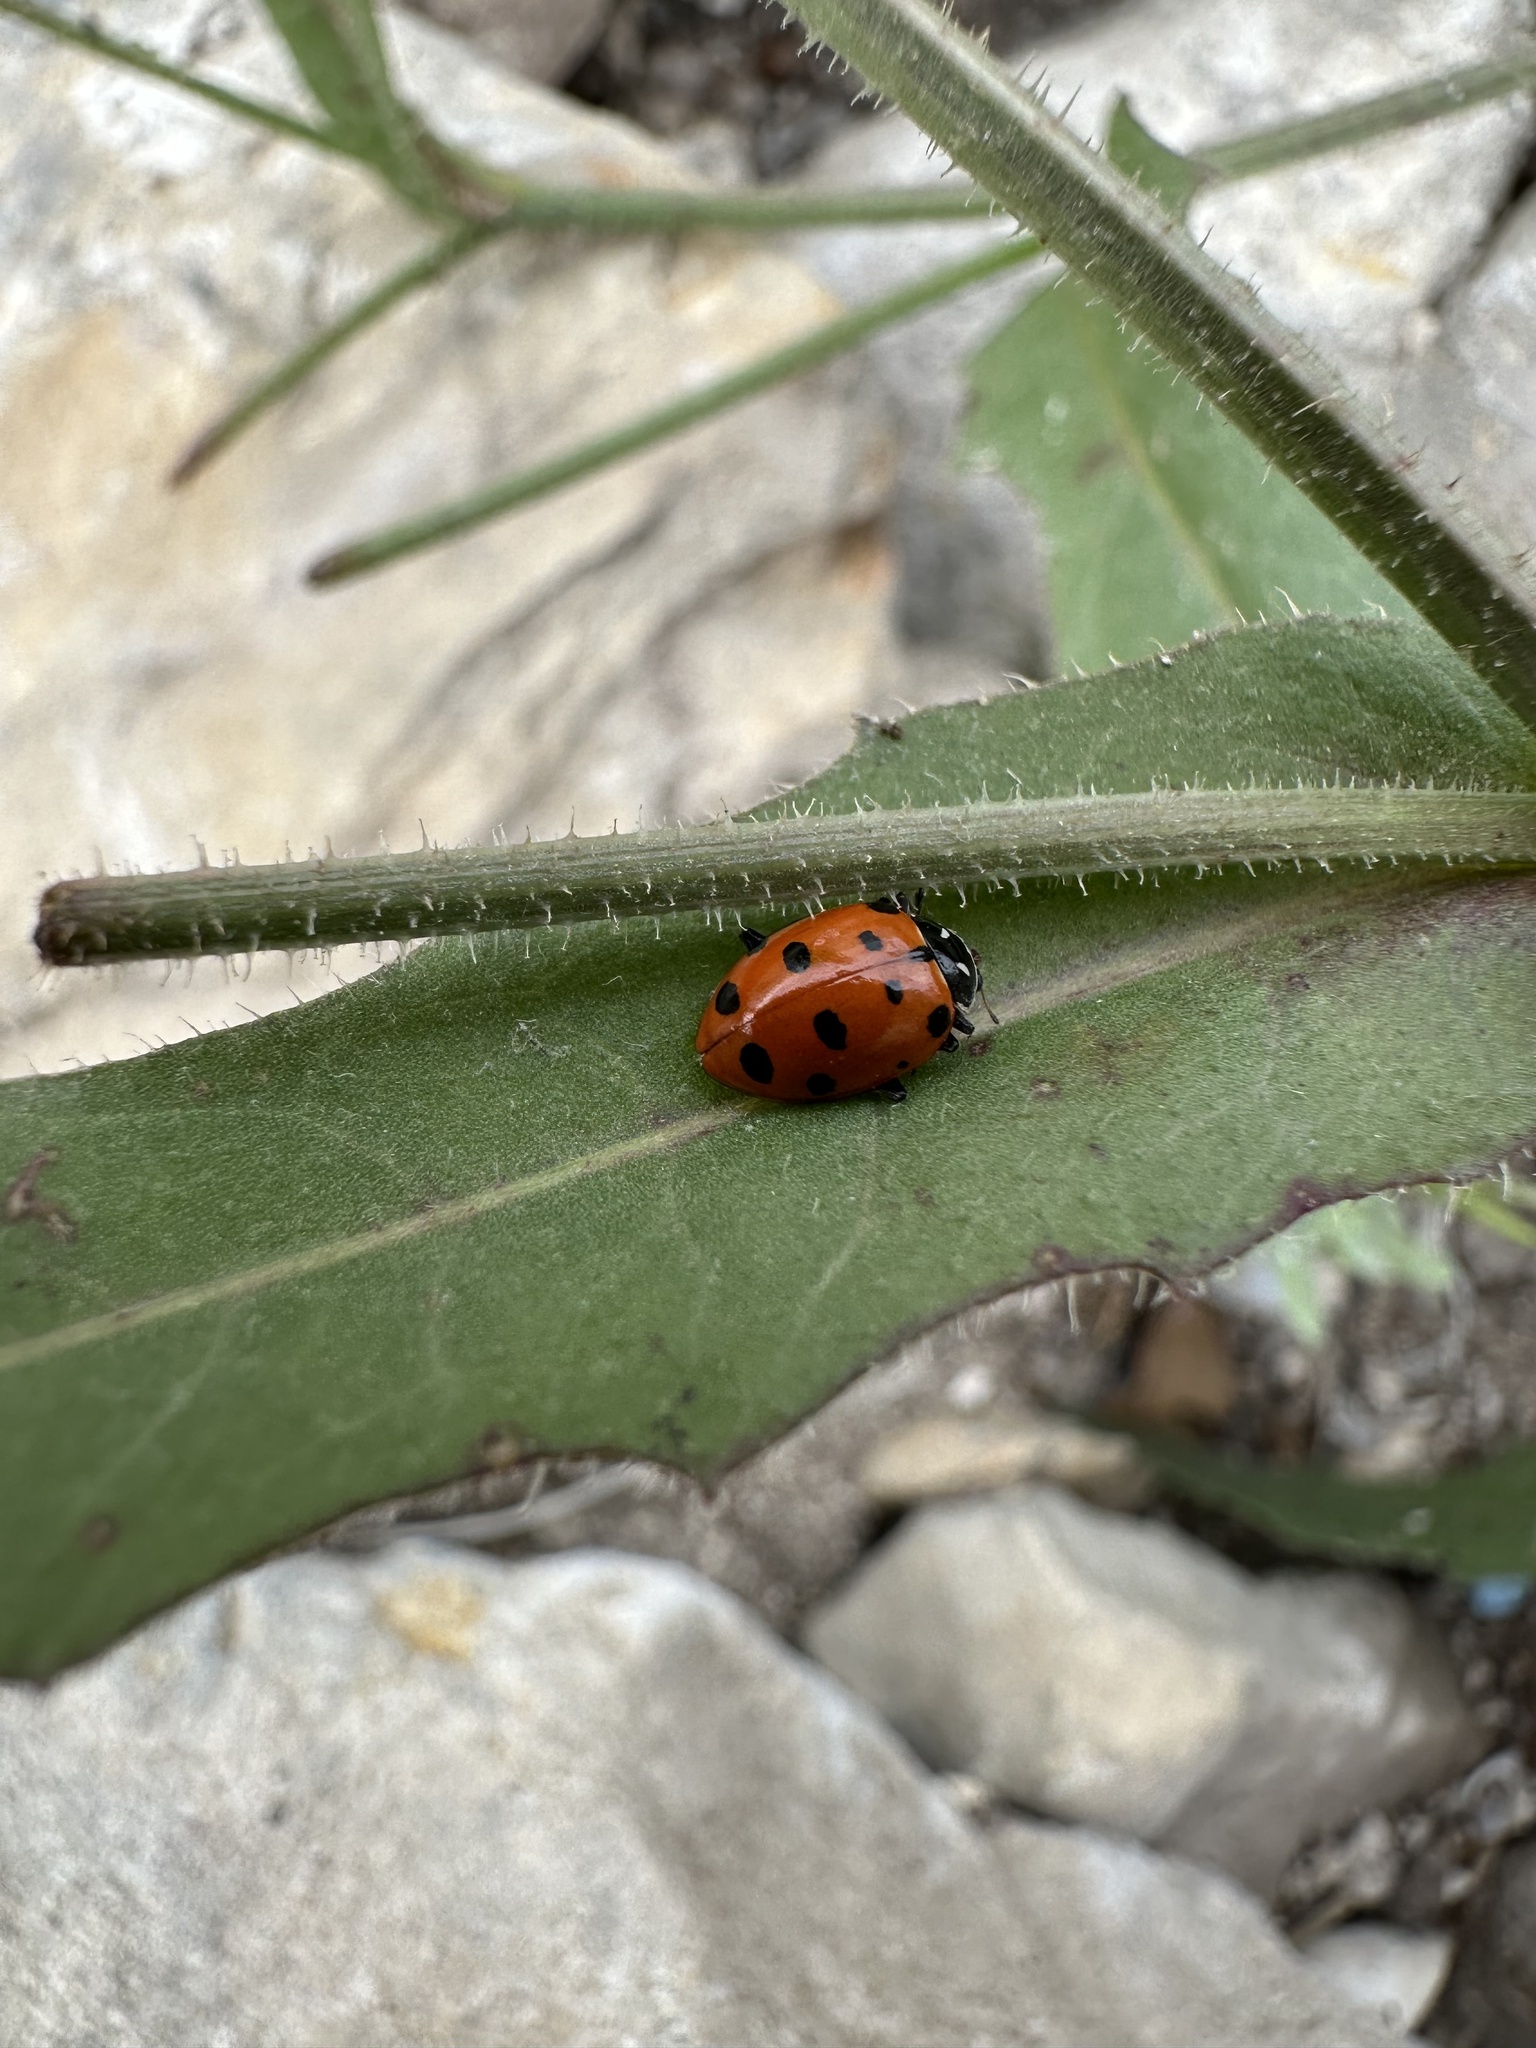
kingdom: Animalia
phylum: Arthropoda
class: Insecta
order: Coleoptera
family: Coccinellidae
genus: Hippodamia
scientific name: Hippodamia convergens
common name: Convergent lady beetle
